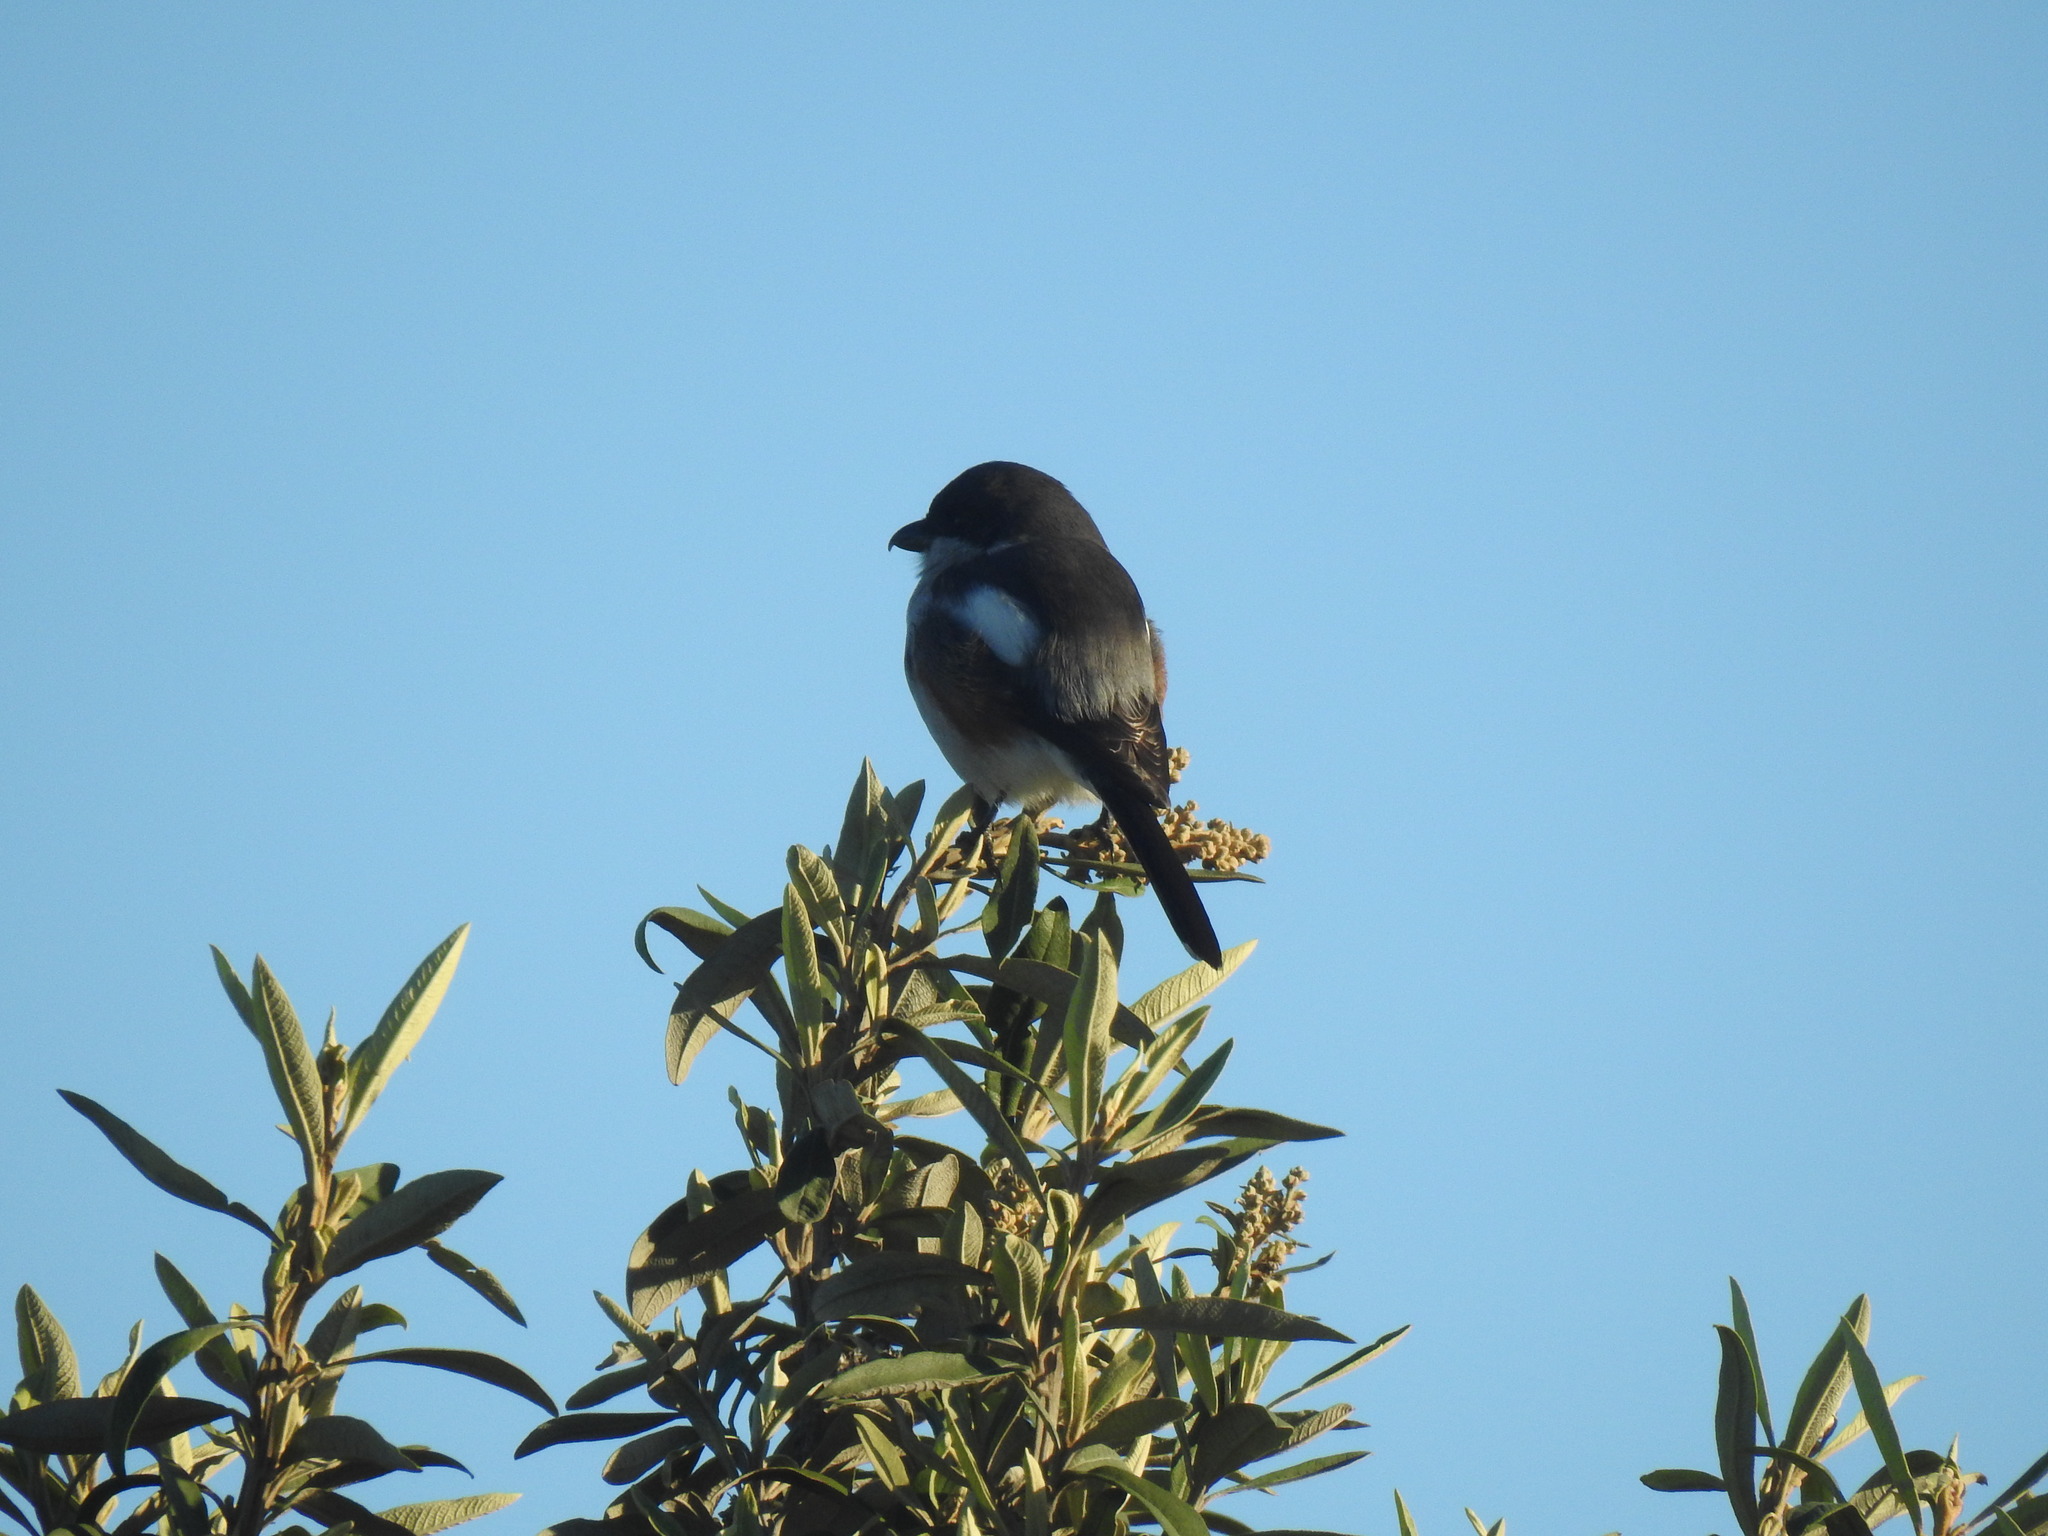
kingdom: Animalia
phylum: Chordata
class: Aves
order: Passeriformes
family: Laniidae
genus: Lanius
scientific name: Lanius collaris
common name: Southern fiscal
